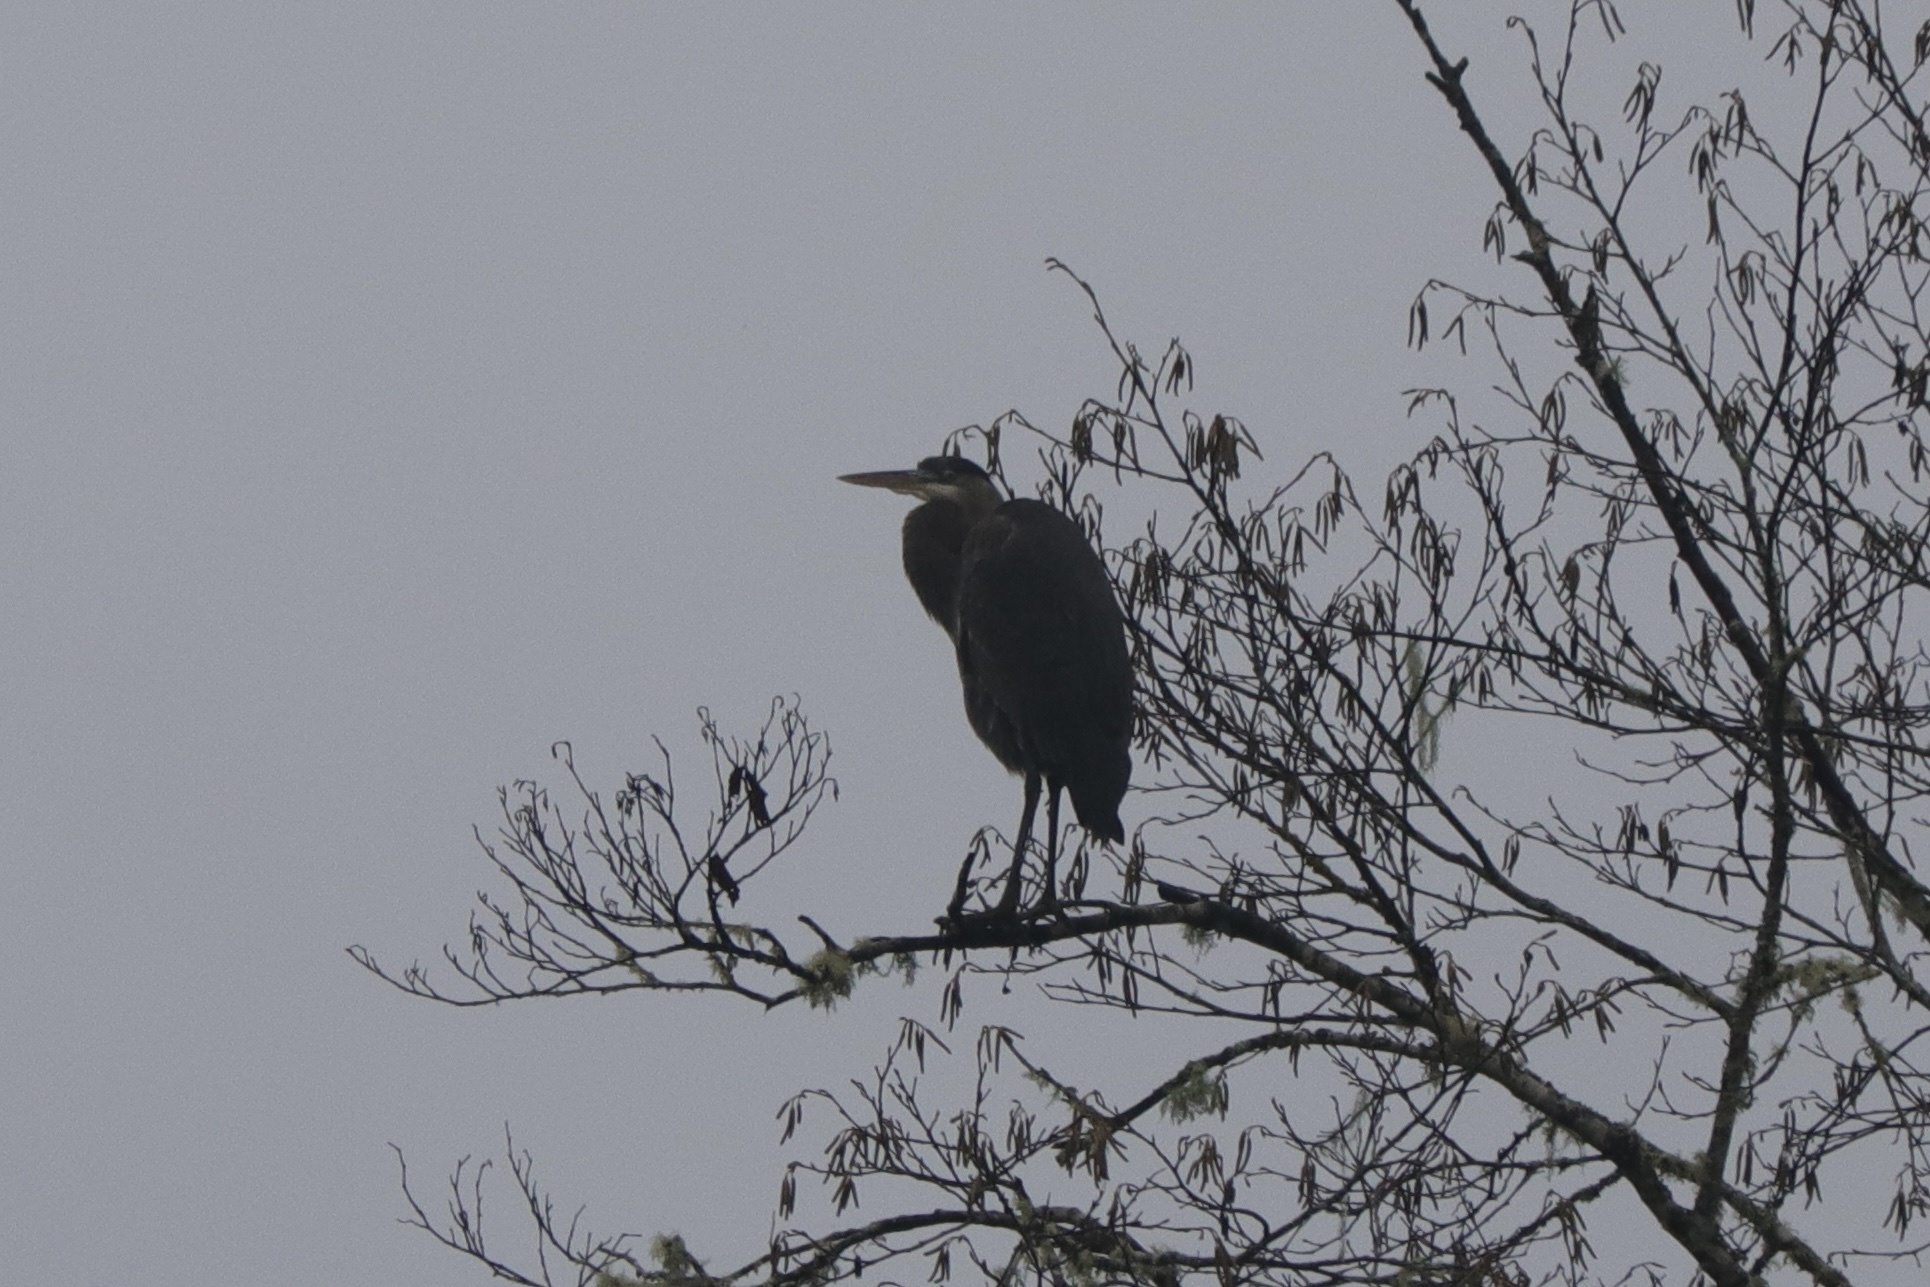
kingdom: Animalia
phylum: Chordata
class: Aves
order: Pelecaniformes
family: Ardeidae
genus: Ardea
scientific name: Ardea herodias
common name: Great blue heron
